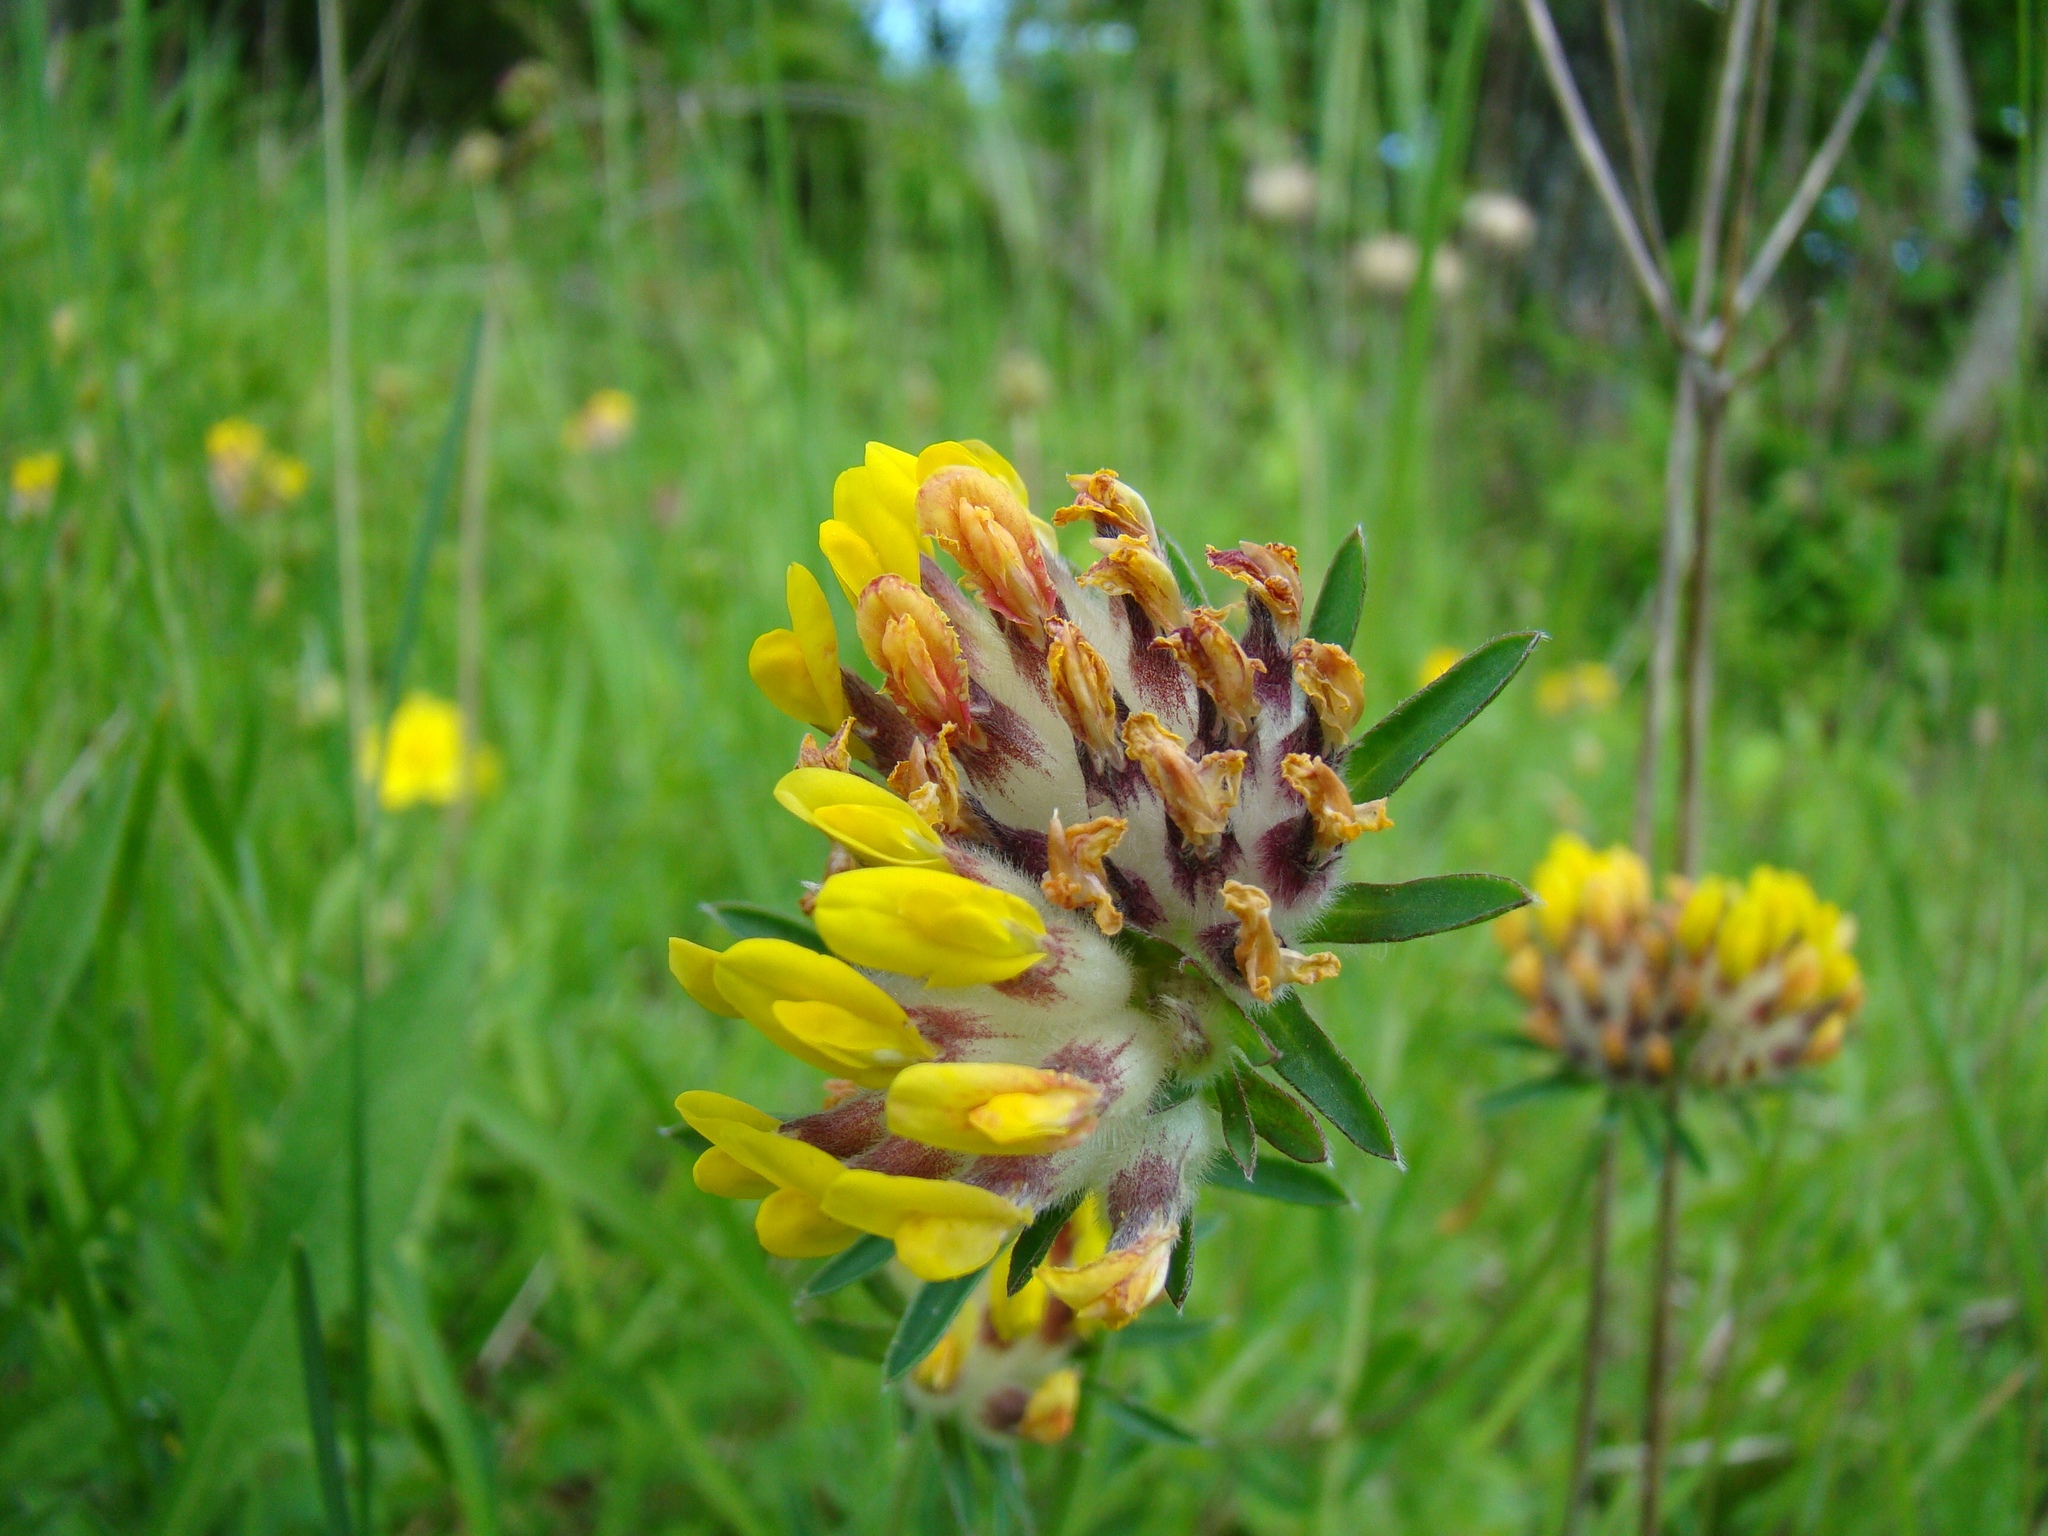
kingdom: Plantae
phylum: Tracheophyta
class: Magnoliopsida
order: Fabales
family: Fabaceae
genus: Anthyllis
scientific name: Anthyllis vulneraria
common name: Kidney vetch
